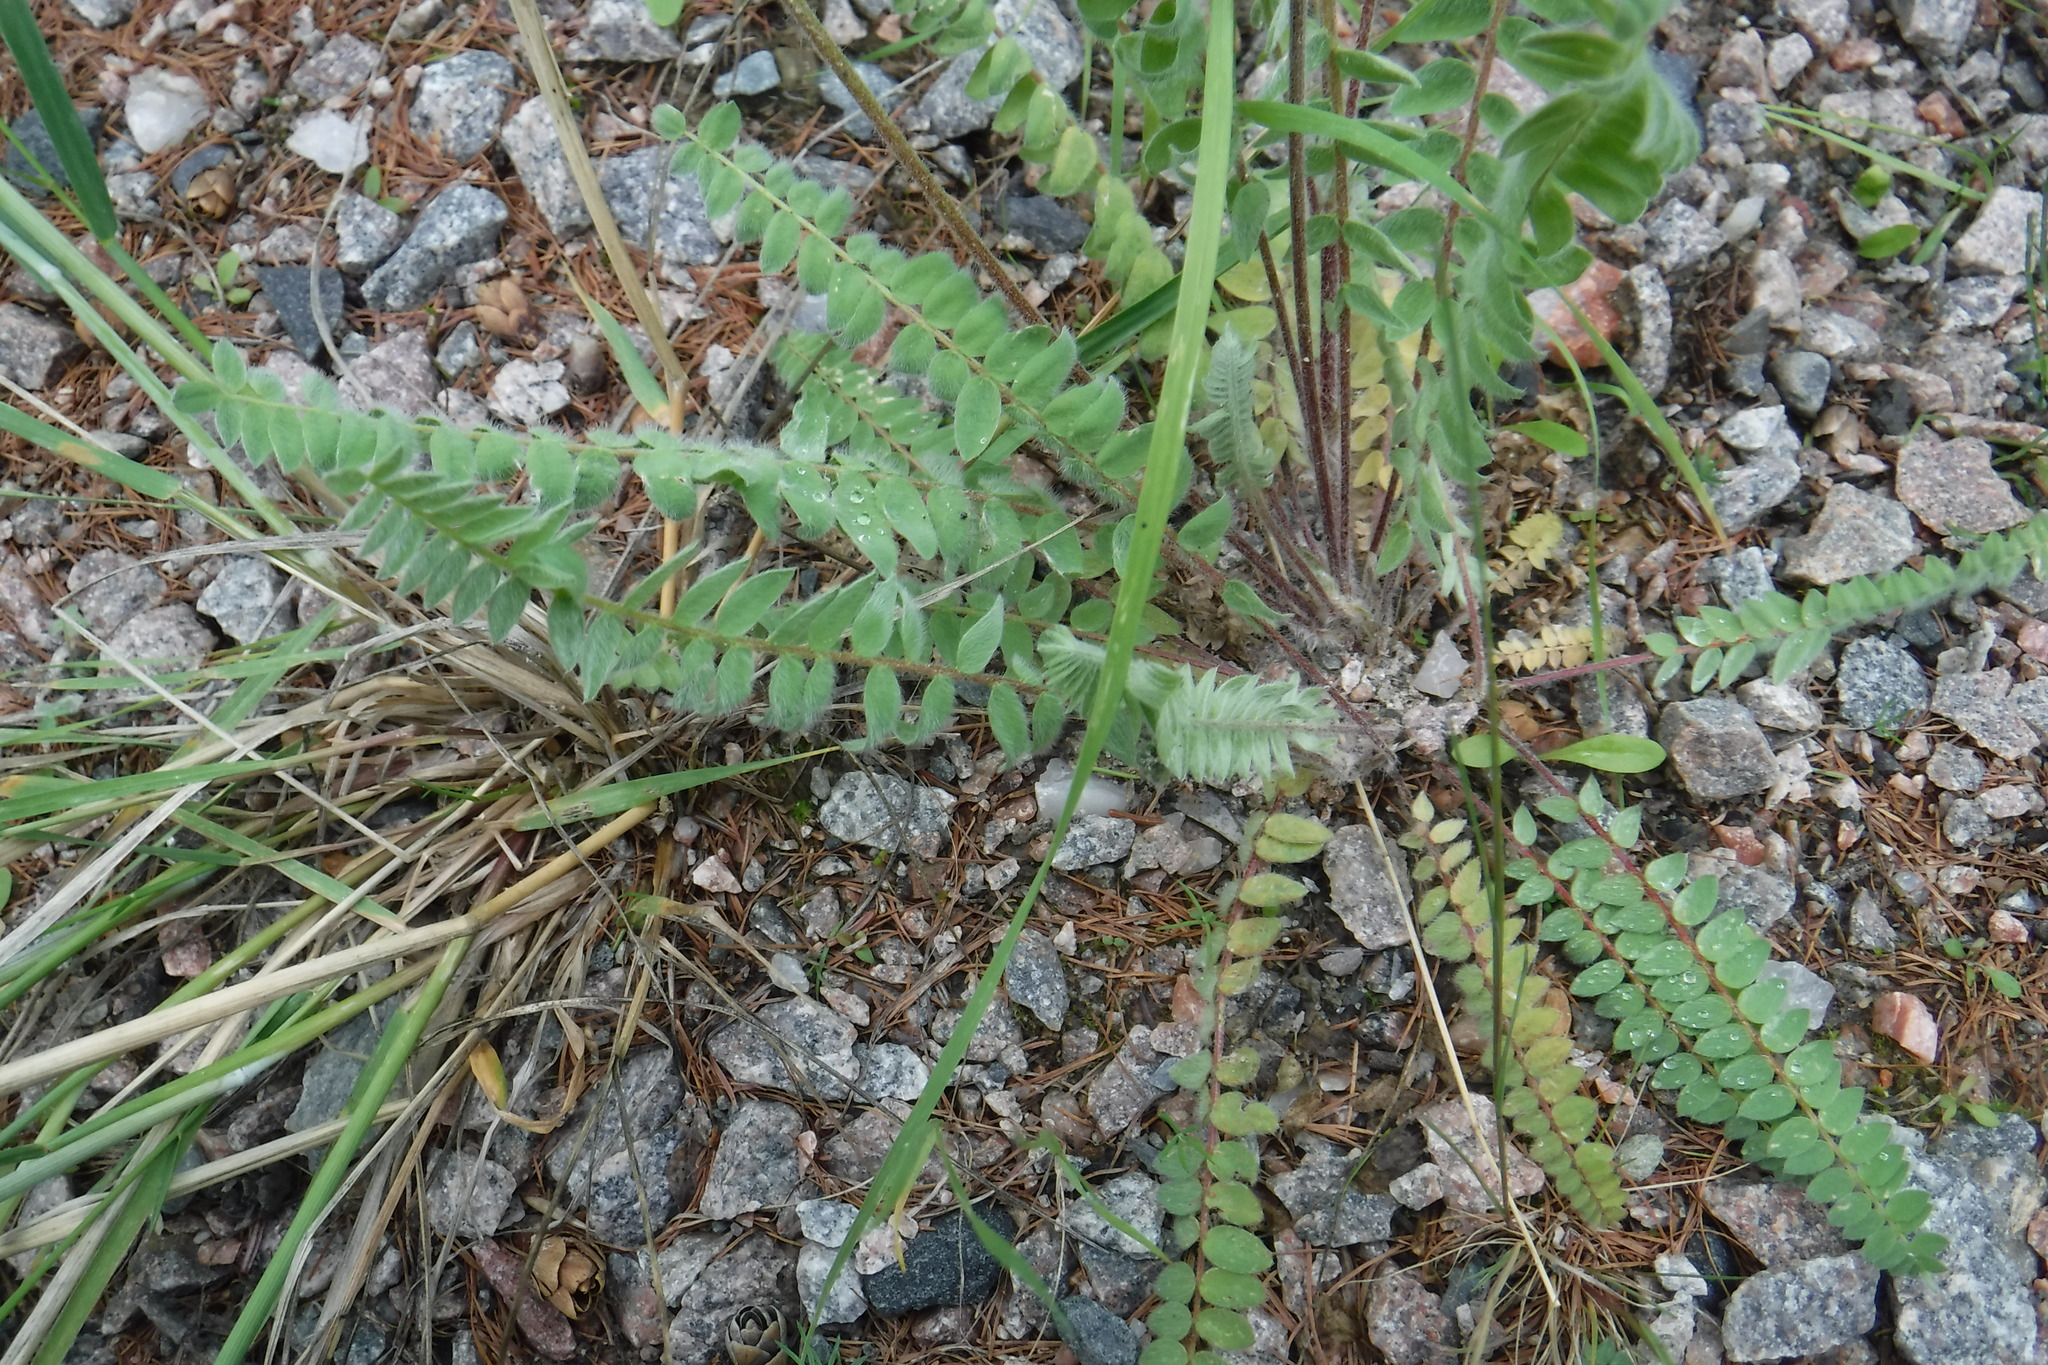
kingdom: Plantae
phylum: Tracheophyta
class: Magnoliopsida
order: Fabales
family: Fabaceae
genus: Oxytropis
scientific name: Oxytropis deflexa
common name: Stemmed oxytrope
